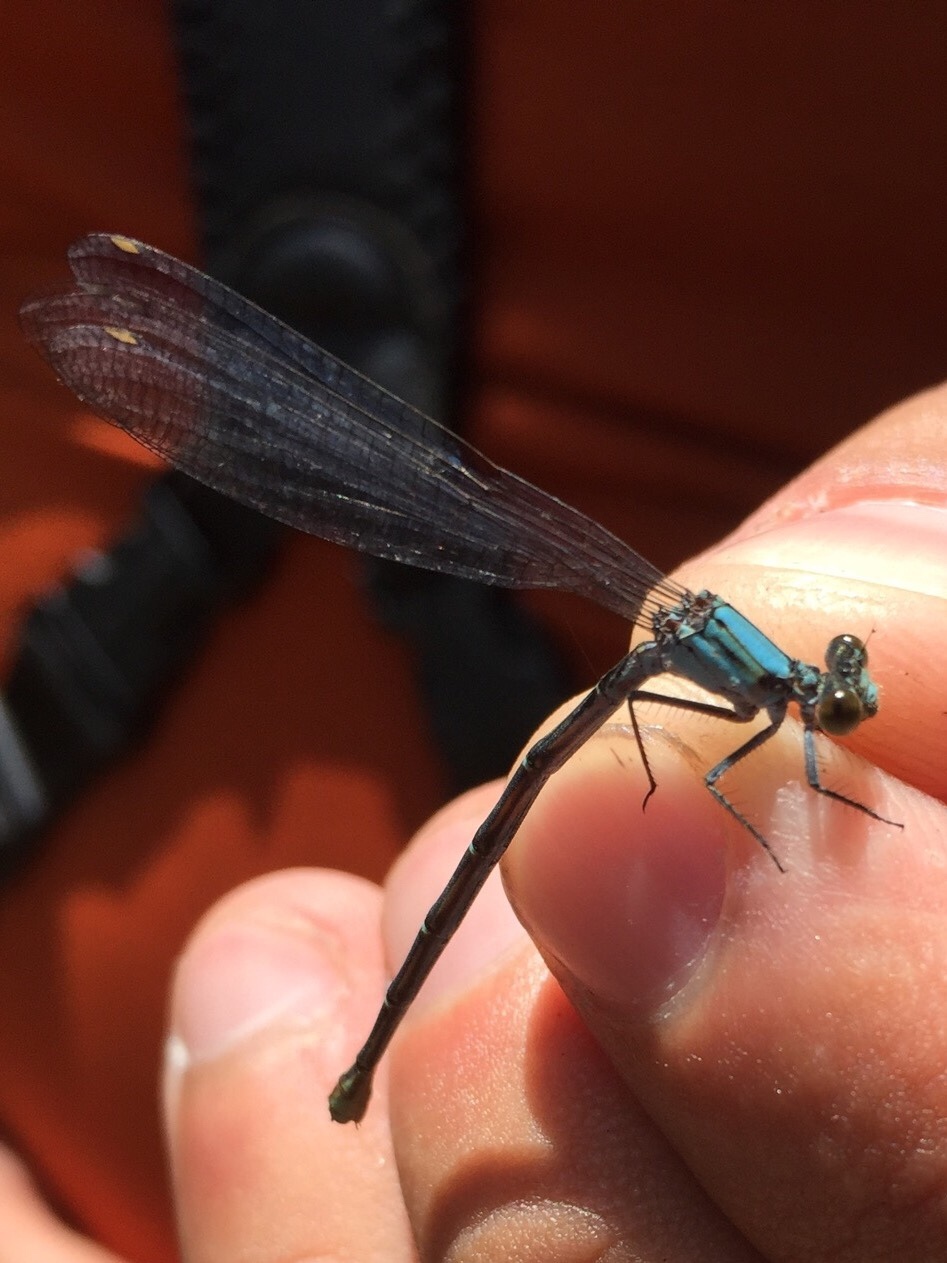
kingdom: Animalia
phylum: Arthropoda
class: Insecta
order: Odonata
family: Coenagrionidae
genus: Argia
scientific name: Argia moesta
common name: Powdered dancer
